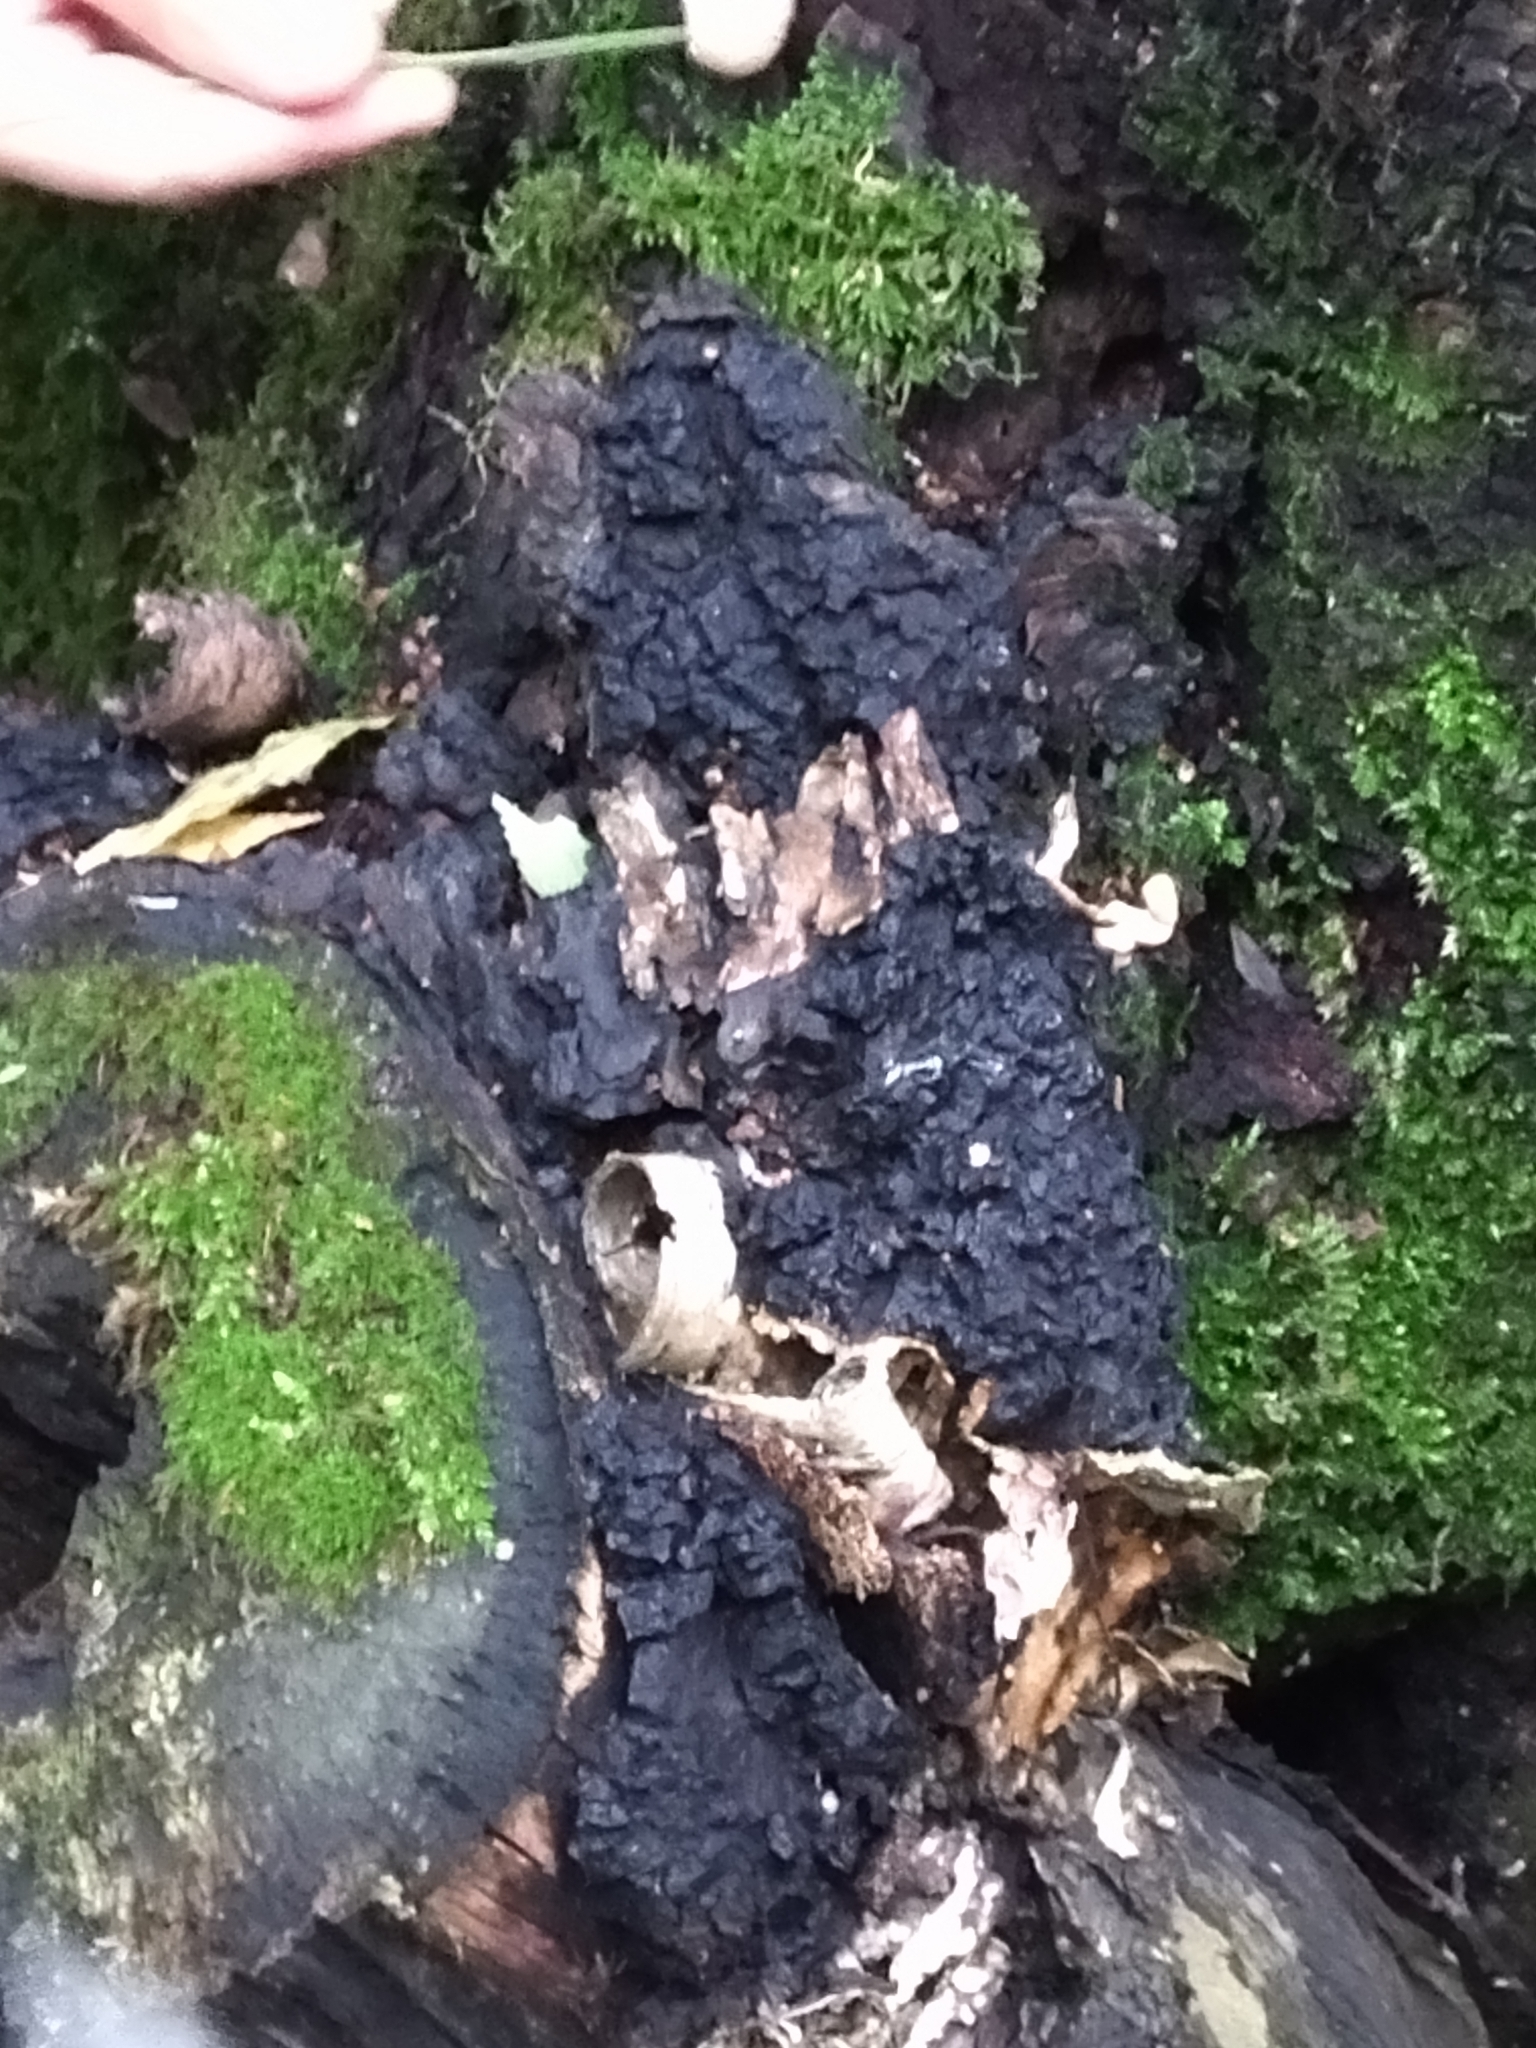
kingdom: Fungi
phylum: Basidiomycota
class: Agaricomycetes
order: Hymenochaetales
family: Hymenochaetaceae
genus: Inonotus
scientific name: Inonotus obliquus
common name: Chaga
